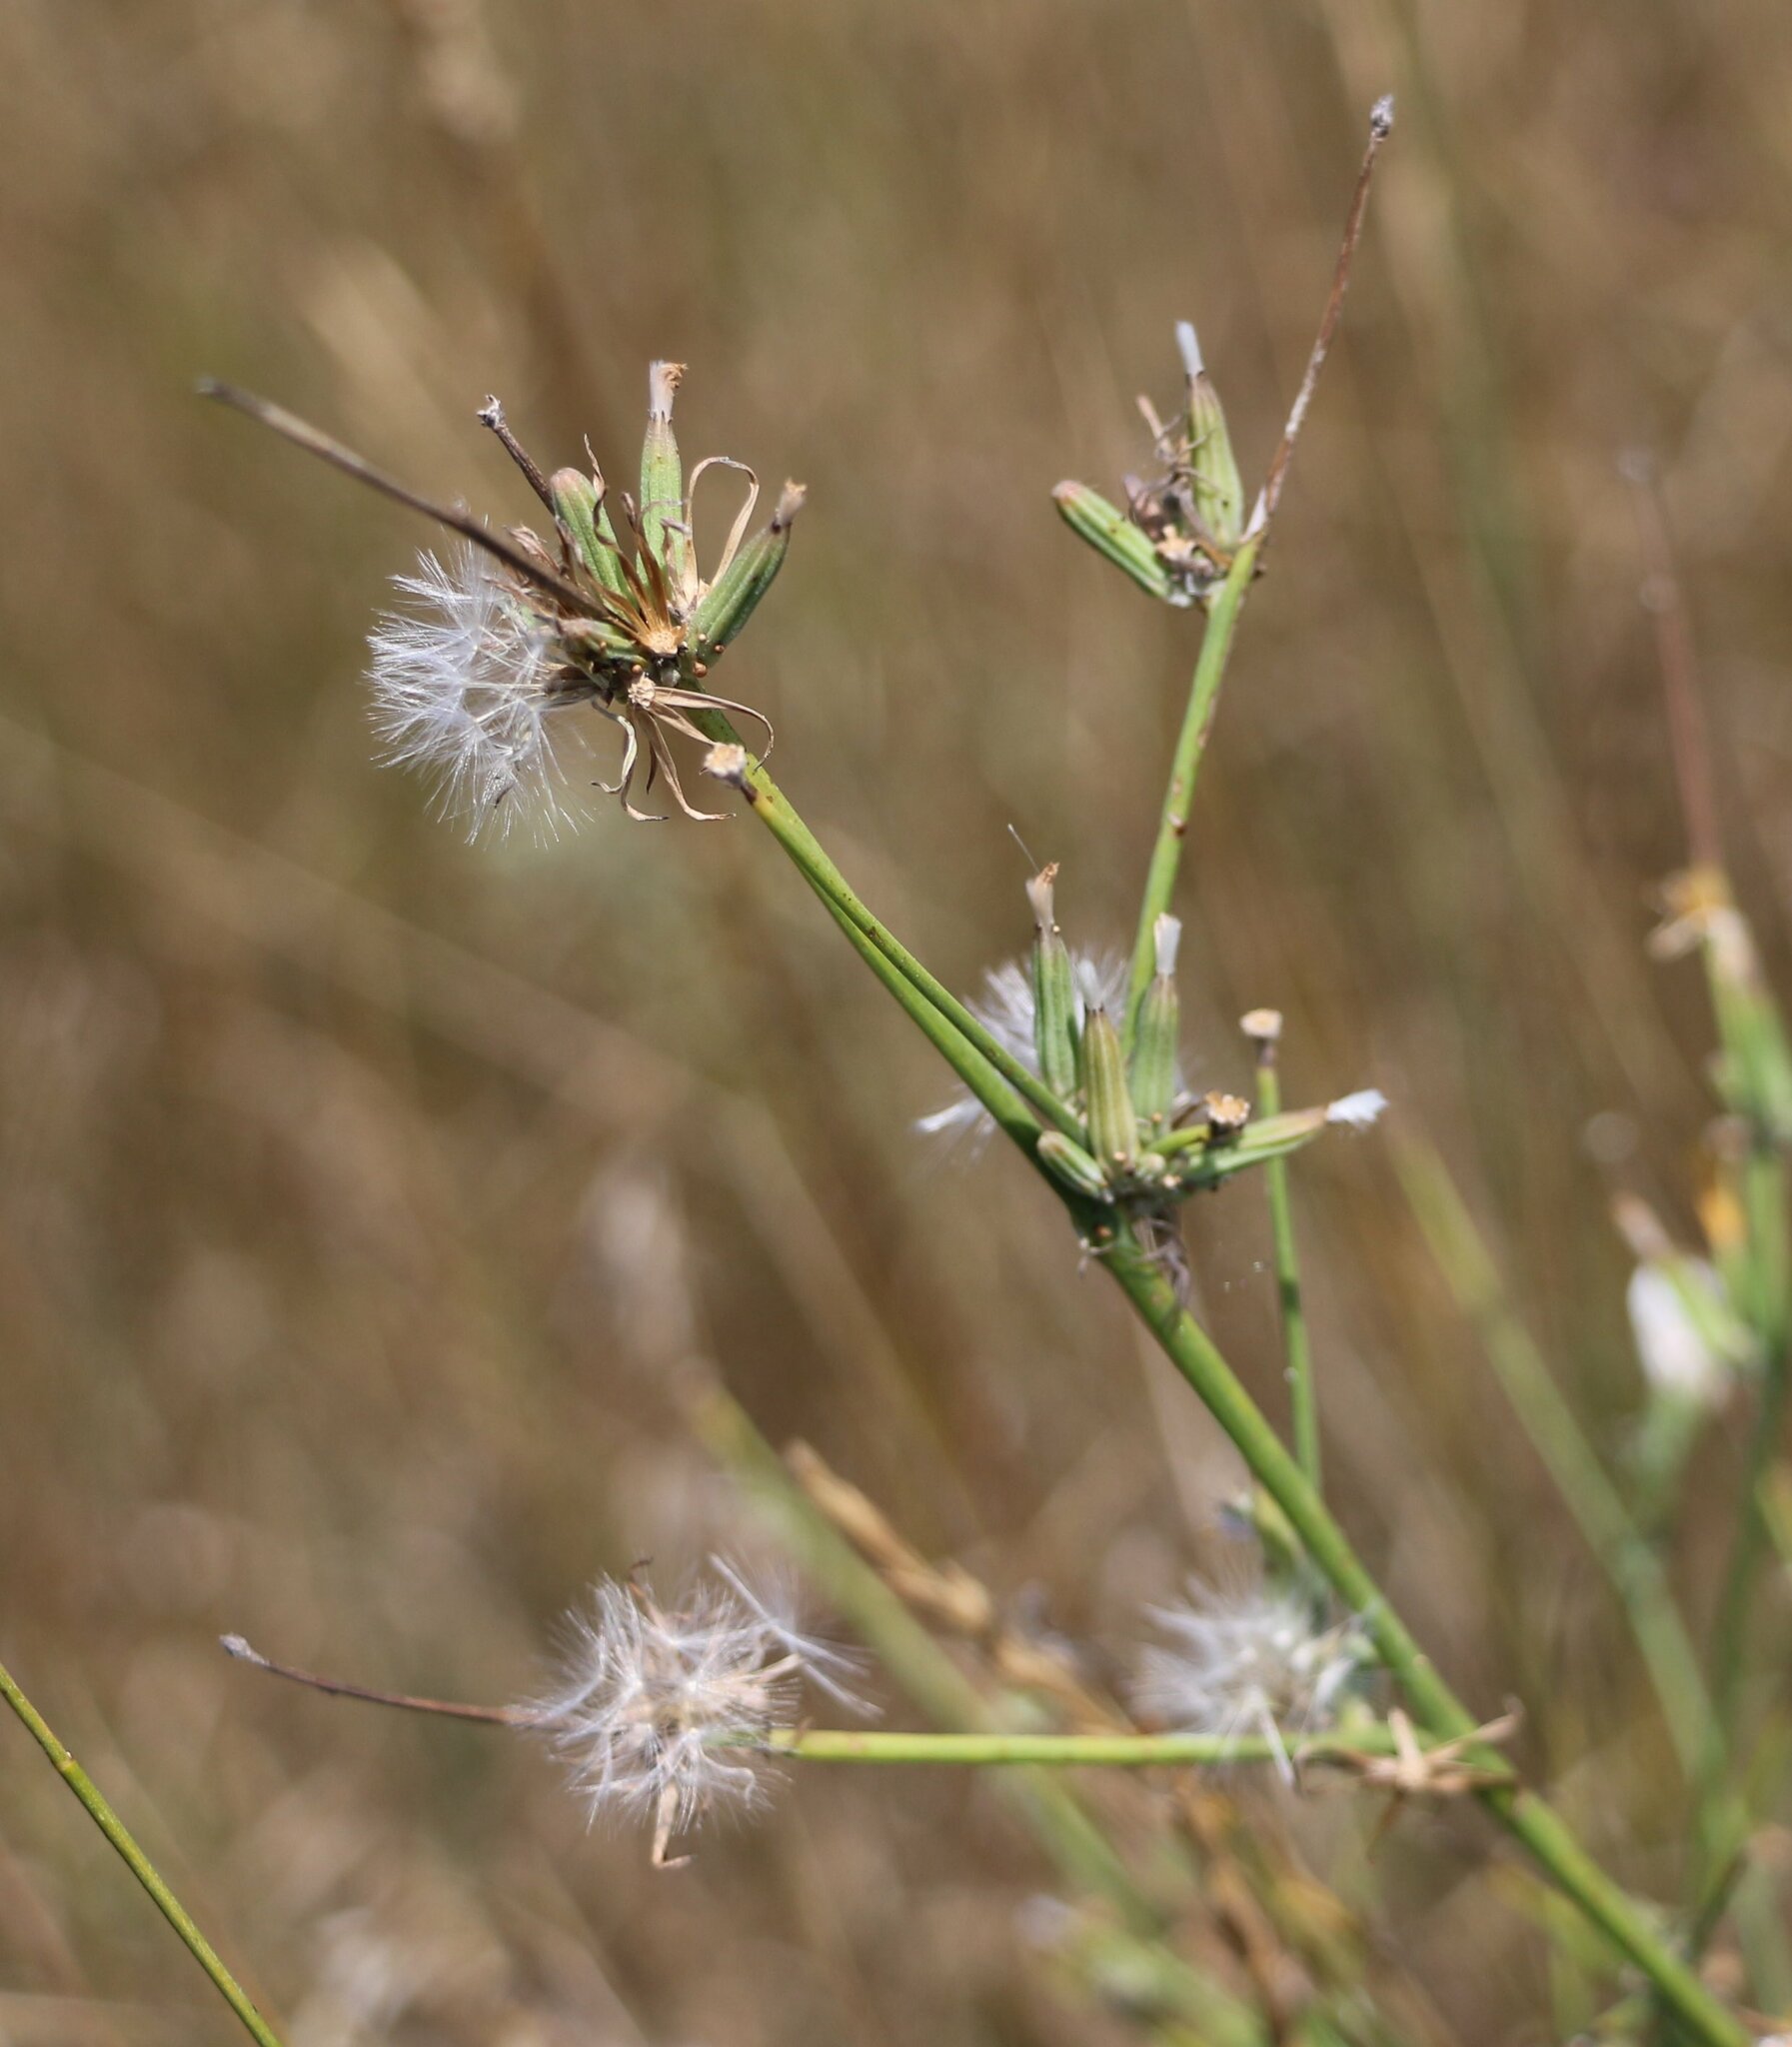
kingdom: Plantae
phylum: Tracheophyta
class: Magnoliopsida
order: Asterales
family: Asteraceae
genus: Chondrilla
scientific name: Chondrilla juncea
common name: Skeleton weed
